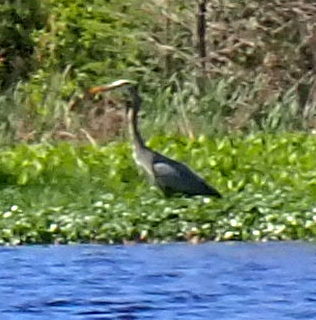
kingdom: Animalia
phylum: Chordata
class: Aves
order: Pelecaniformes
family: Ardeidae
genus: Ardea
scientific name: Ardea herodias
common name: Great blue heron
